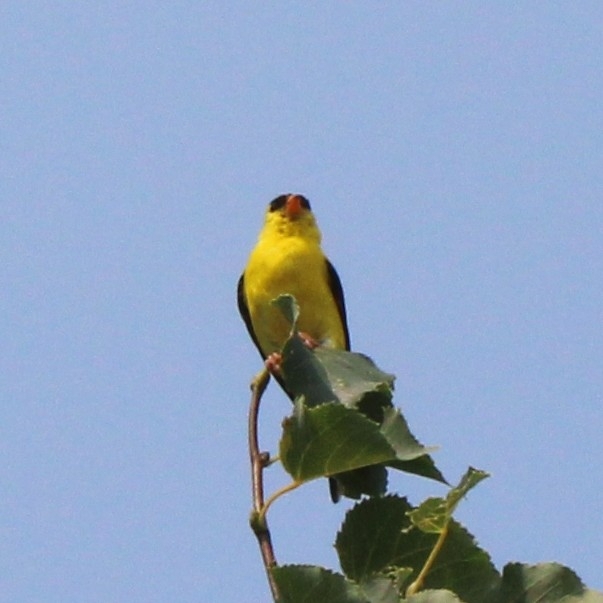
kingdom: Animalia
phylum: Chordata
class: Aves
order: Passeriformes
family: Fringillidae
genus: Spinus
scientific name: Spinus tristis
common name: American goldfinch
